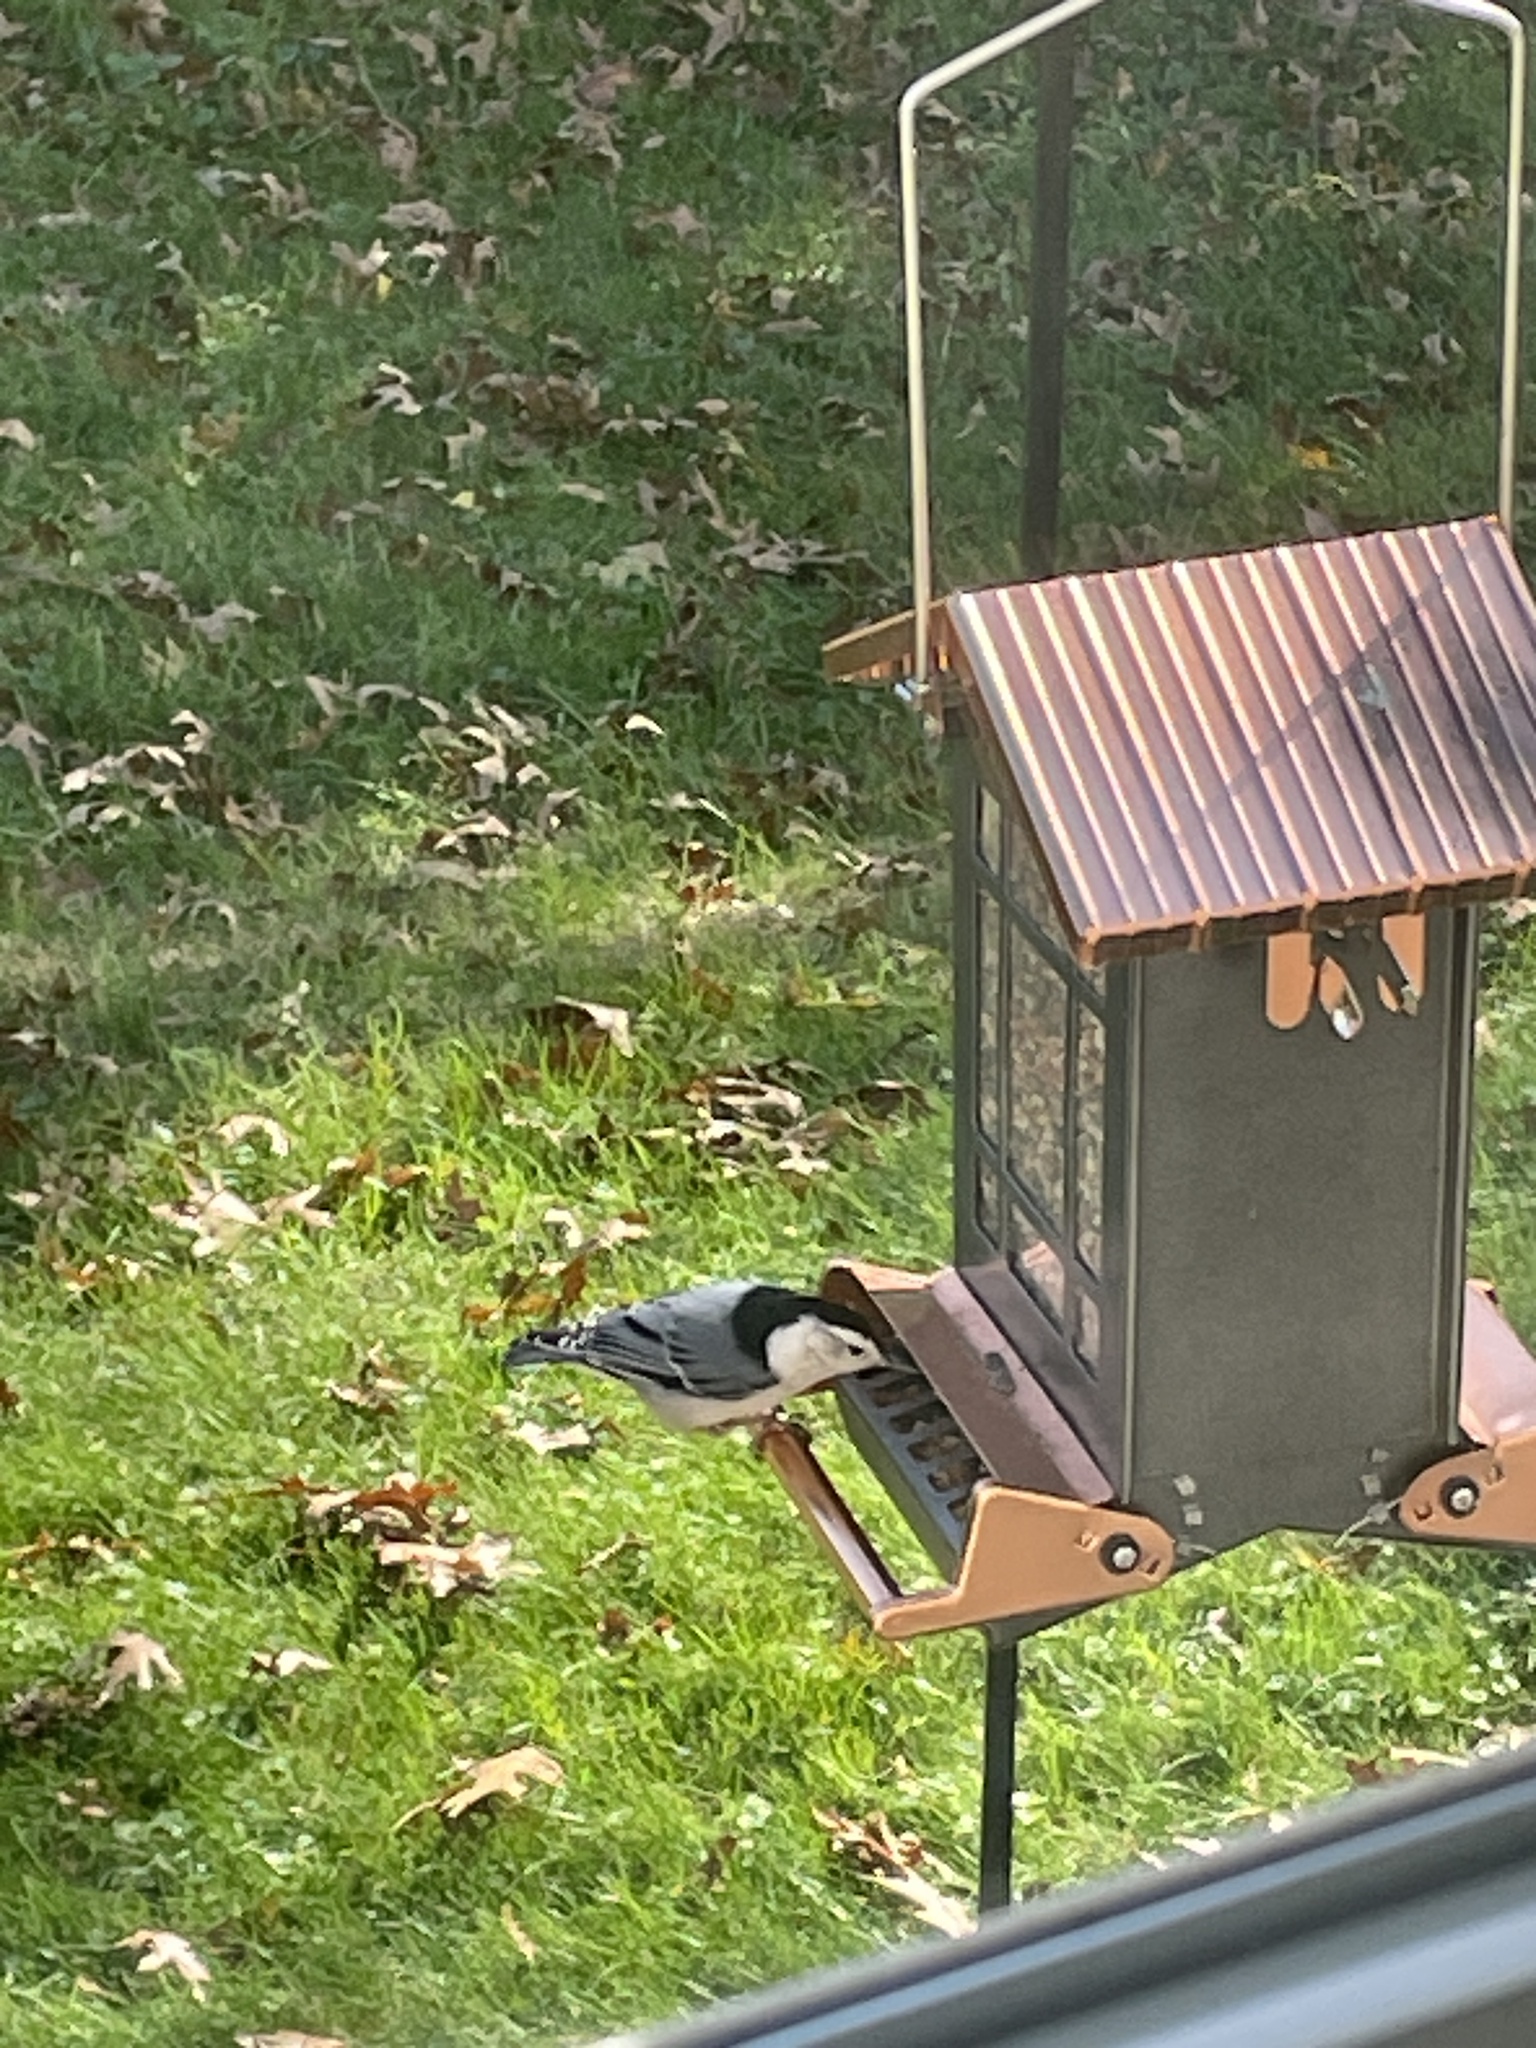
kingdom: Animalia
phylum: Chordata
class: Aves
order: Passeriformes
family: Sittidae
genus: Sitta
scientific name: Sitta carolinensis
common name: White-breasted nuthatch
